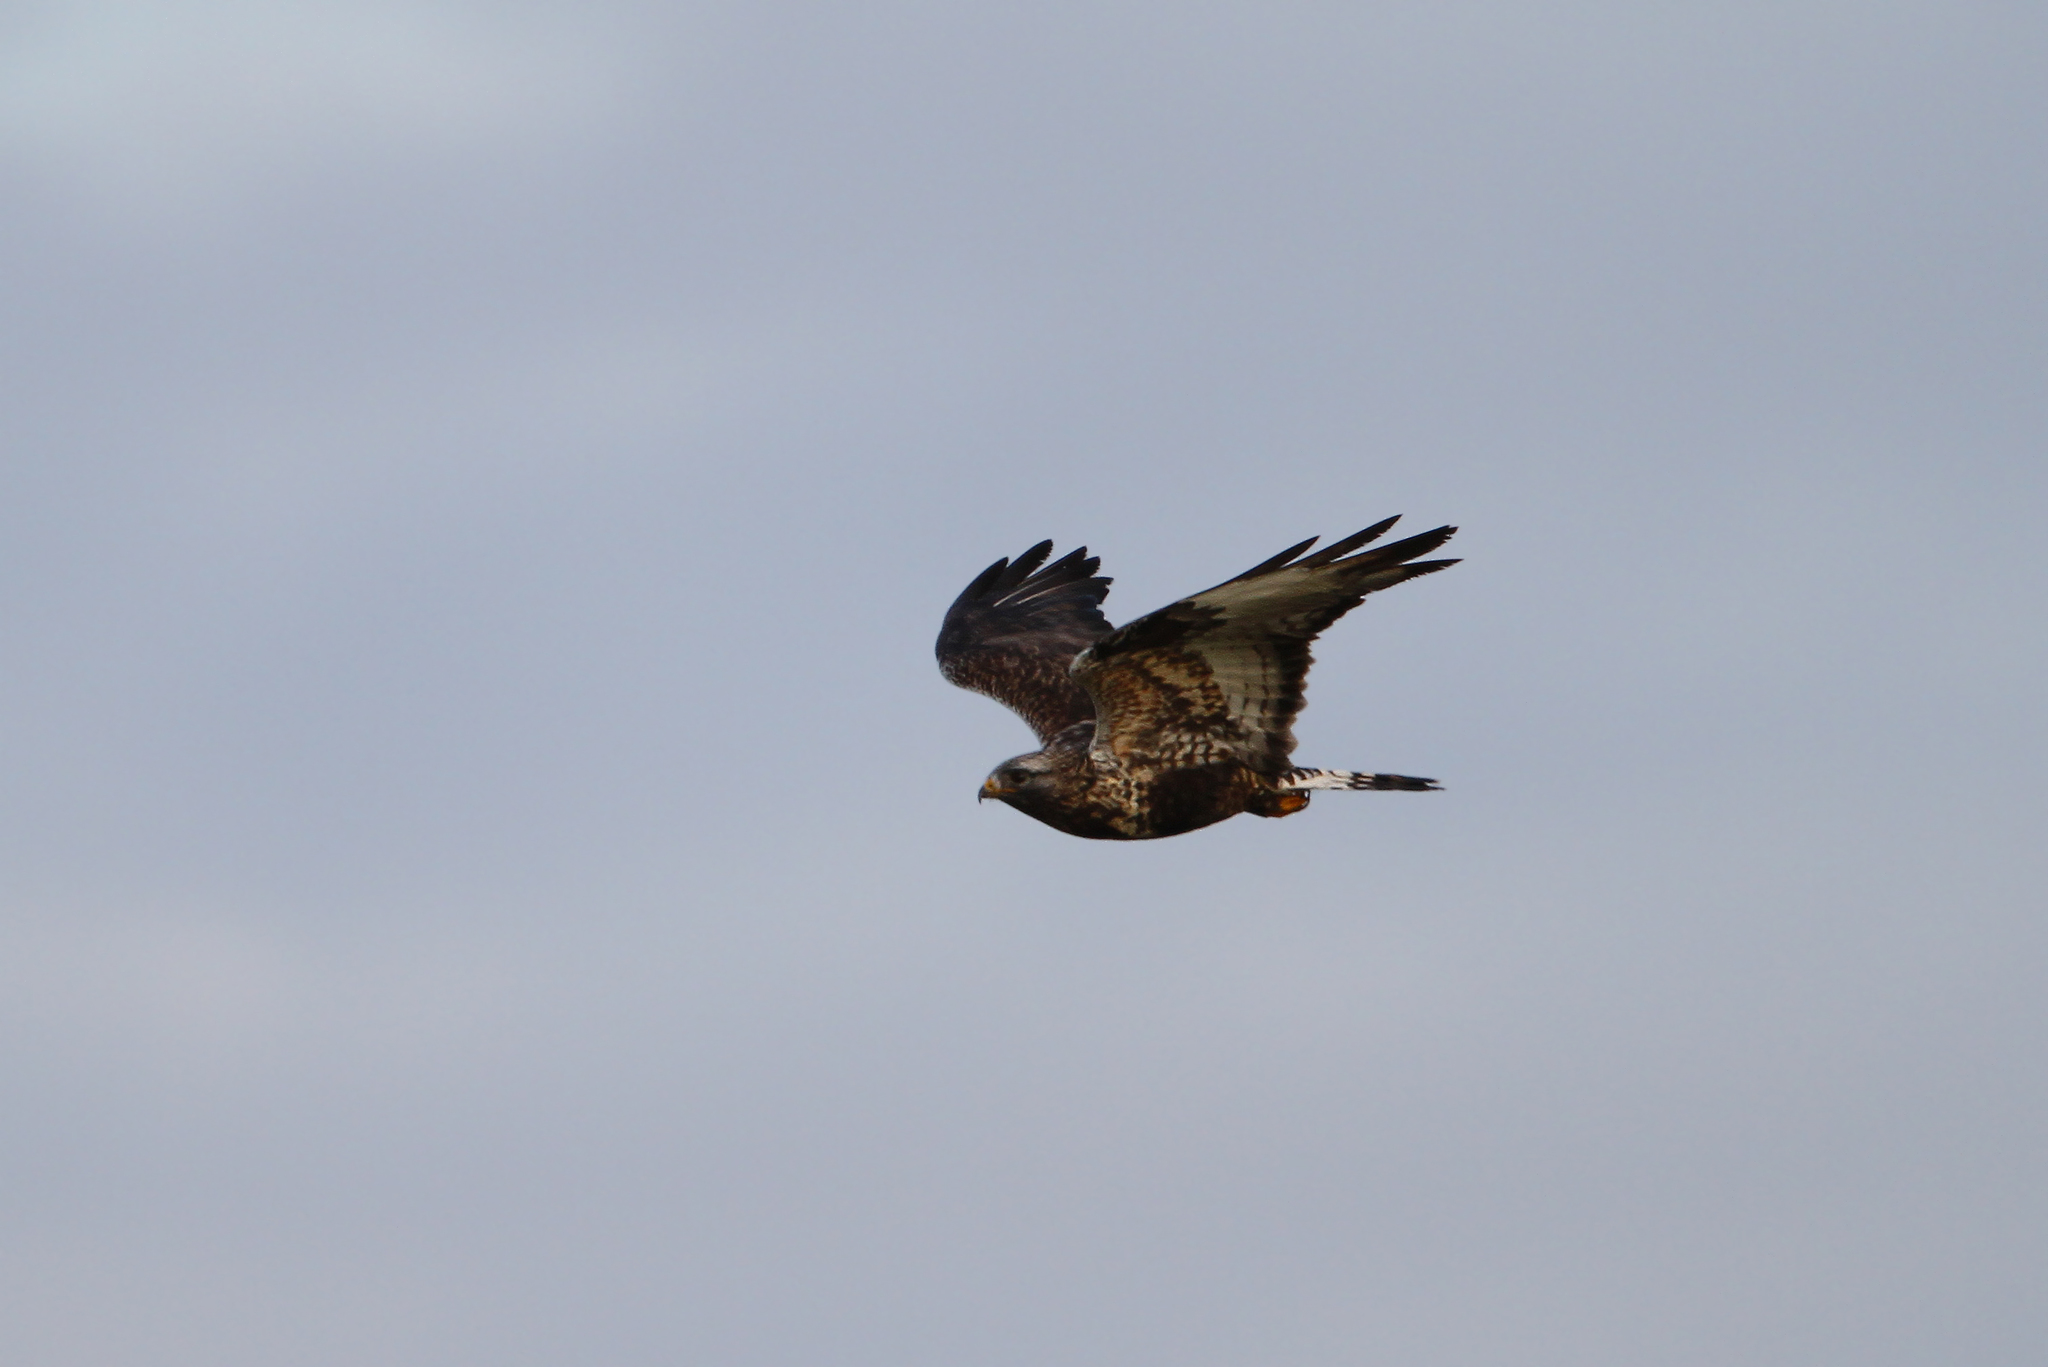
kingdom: Animalia
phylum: Chordata
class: Aves
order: Accipitriformes
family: Accipitridae
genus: Buteo
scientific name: Buteo lagopus
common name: Rough-legged buzzard
